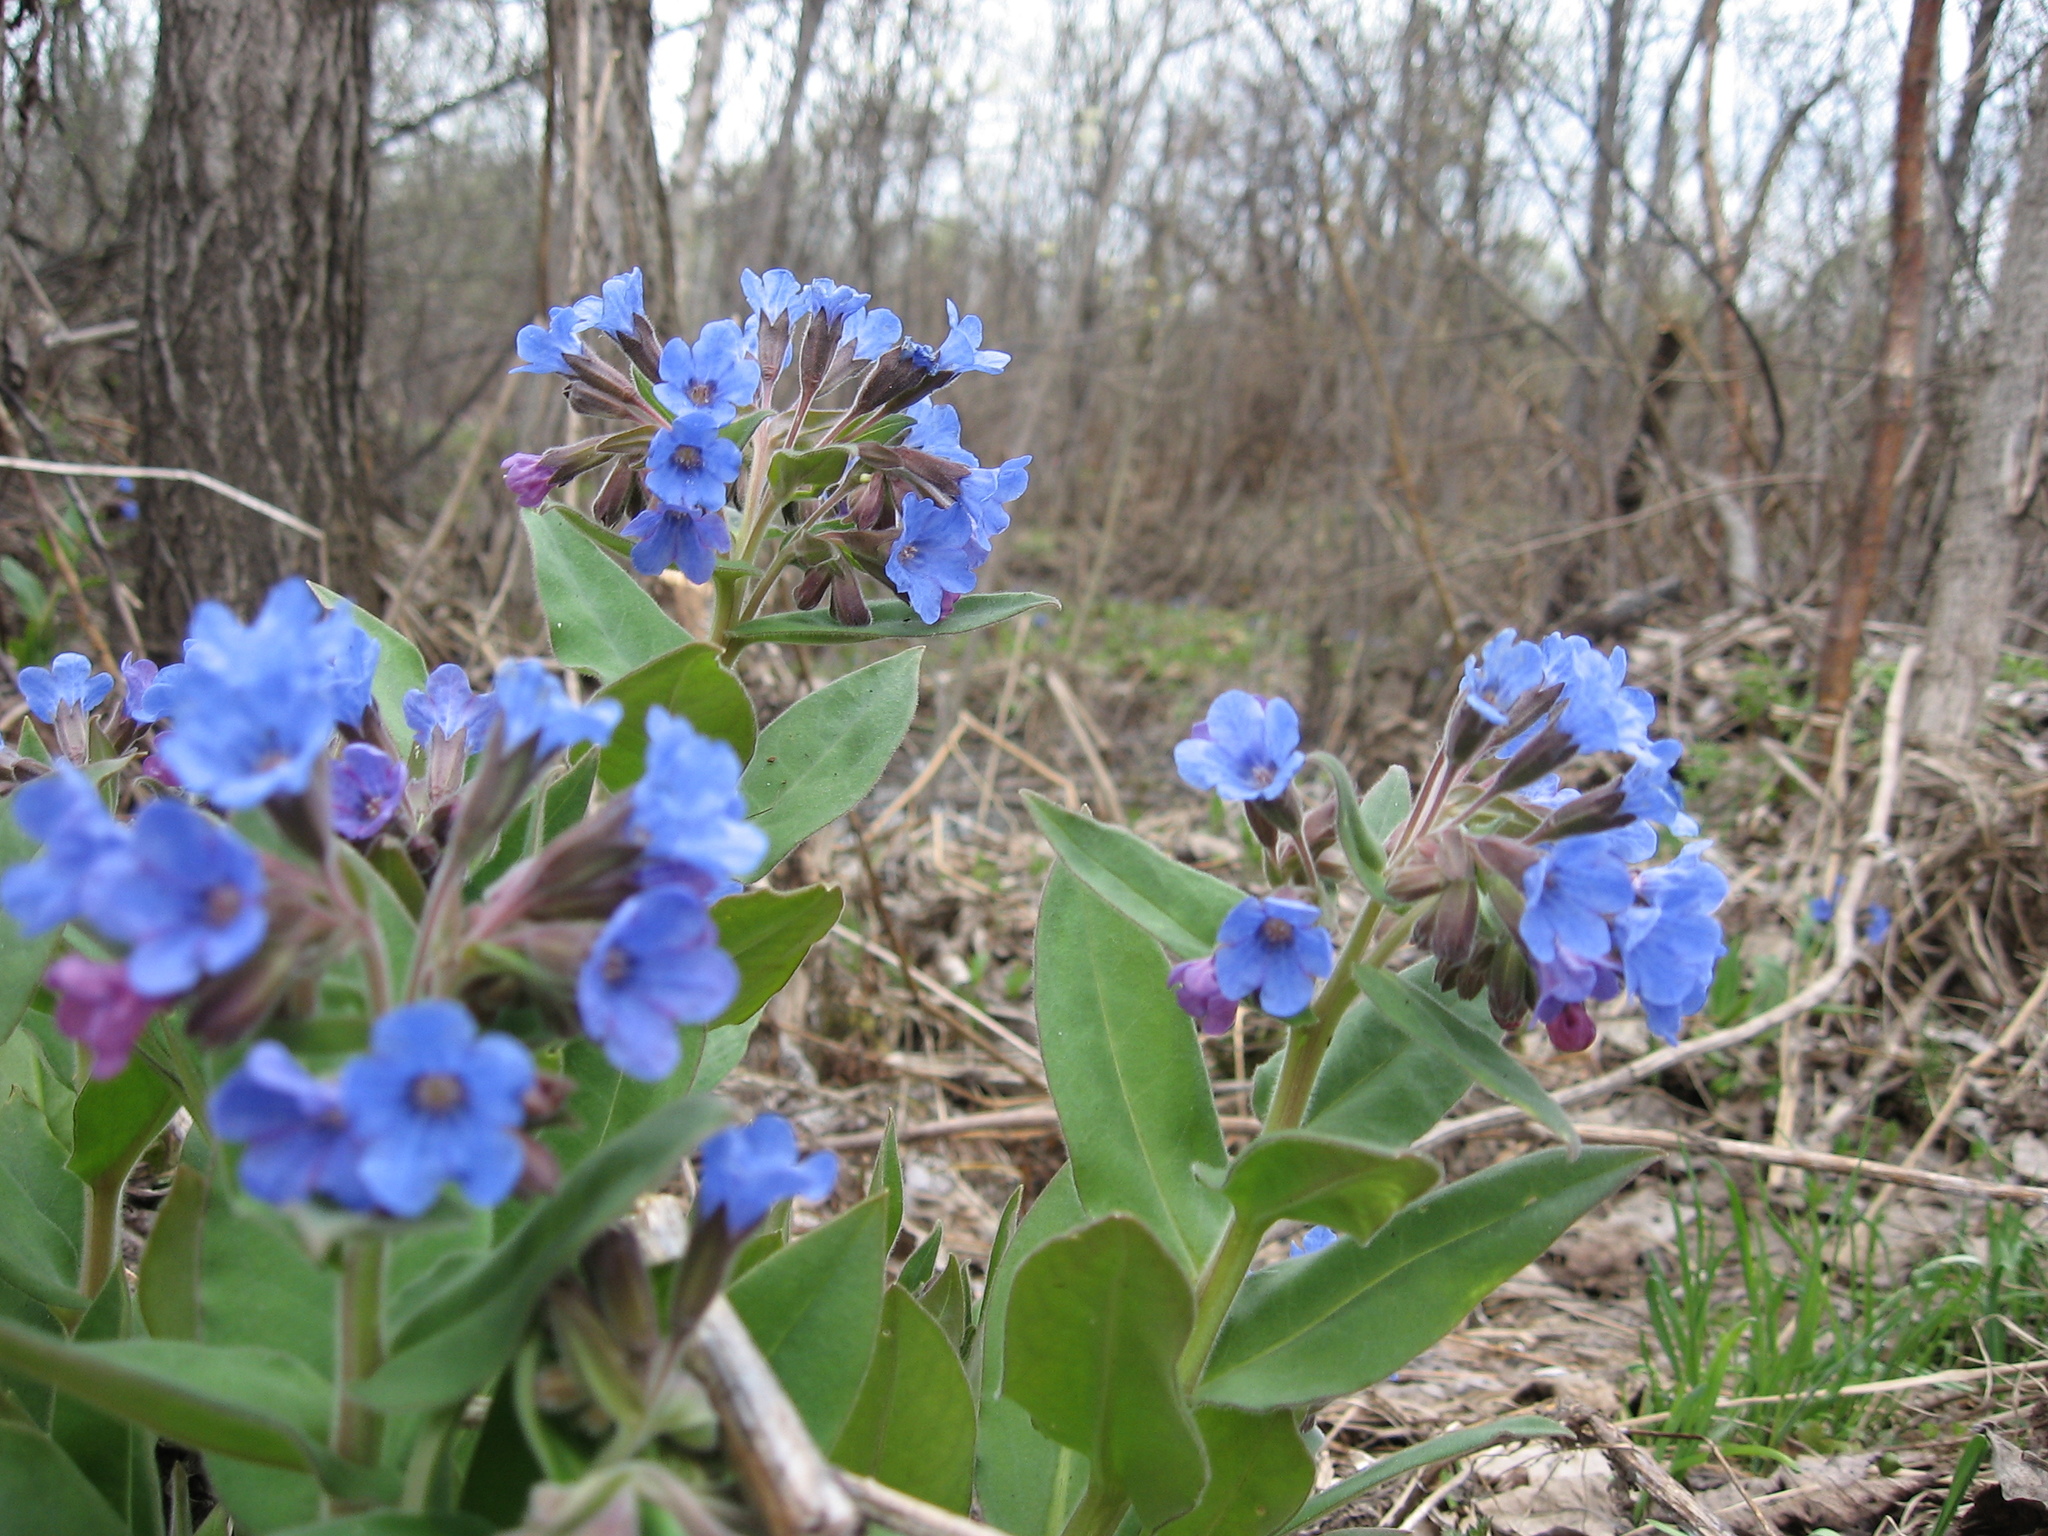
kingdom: Plantae
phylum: Tracheophyta
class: Magnoliopsida
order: Boraginales
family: Boraginaceae
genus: Pulmonaria
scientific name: Pulmonaria mollis
